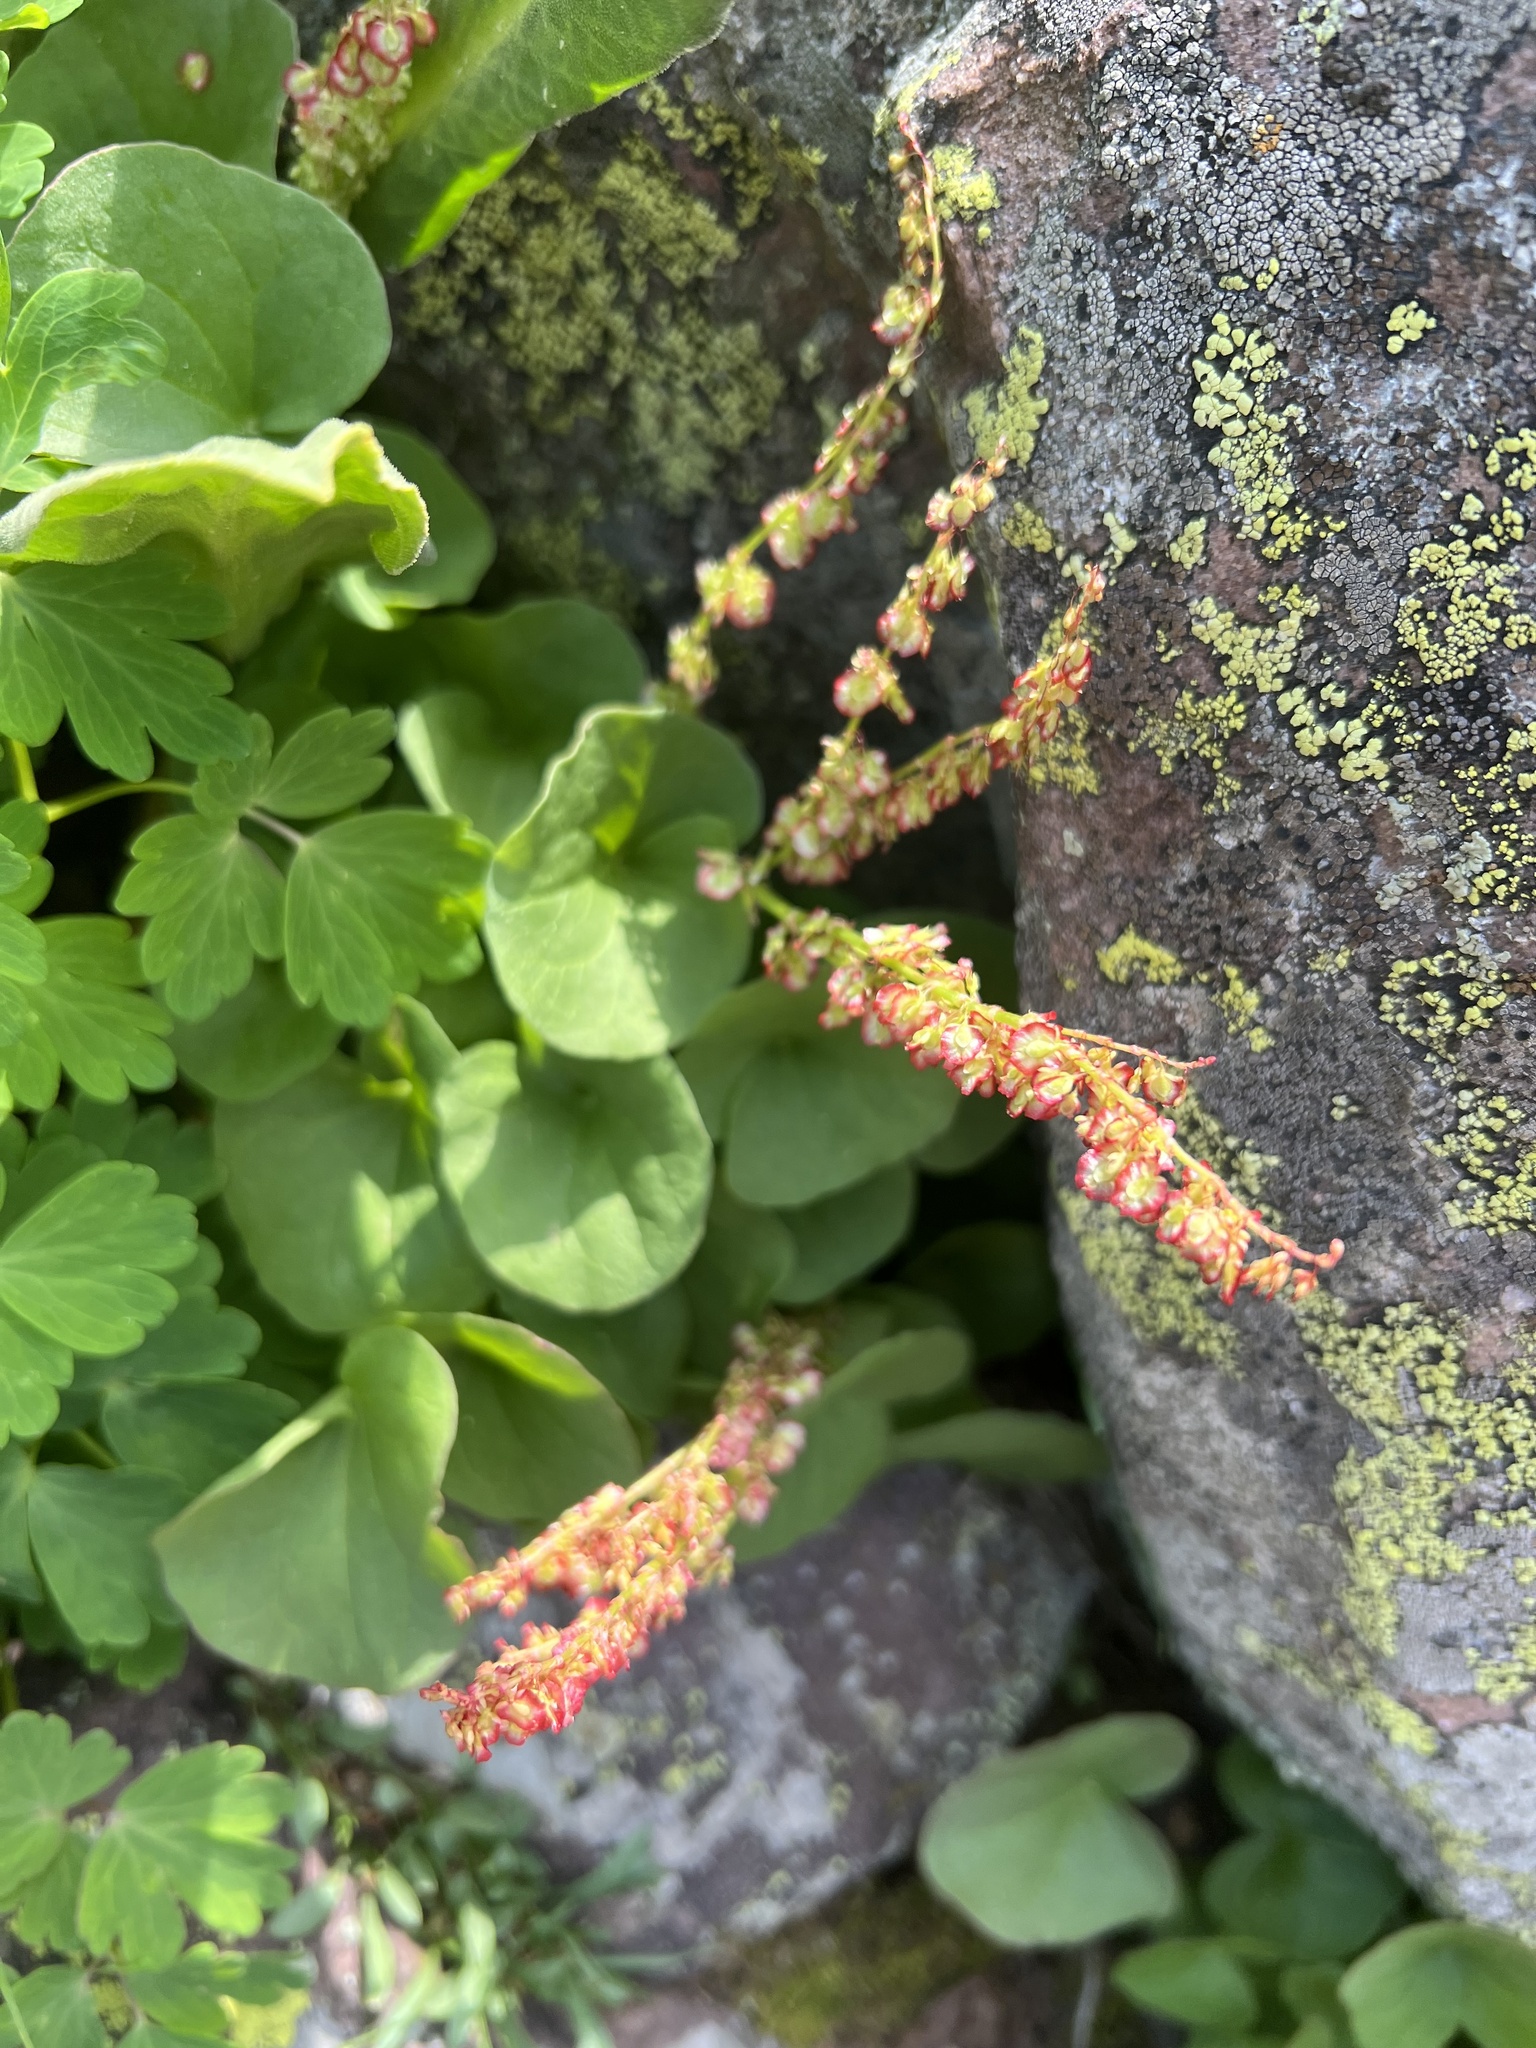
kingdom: Plantae
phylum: Tracheophyta
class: Magnoliopsida
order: Caryophyllales
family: Polygonaceae
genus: Oxyria
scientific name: Oxyria digyna
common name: Alpine mountain-sorrel
